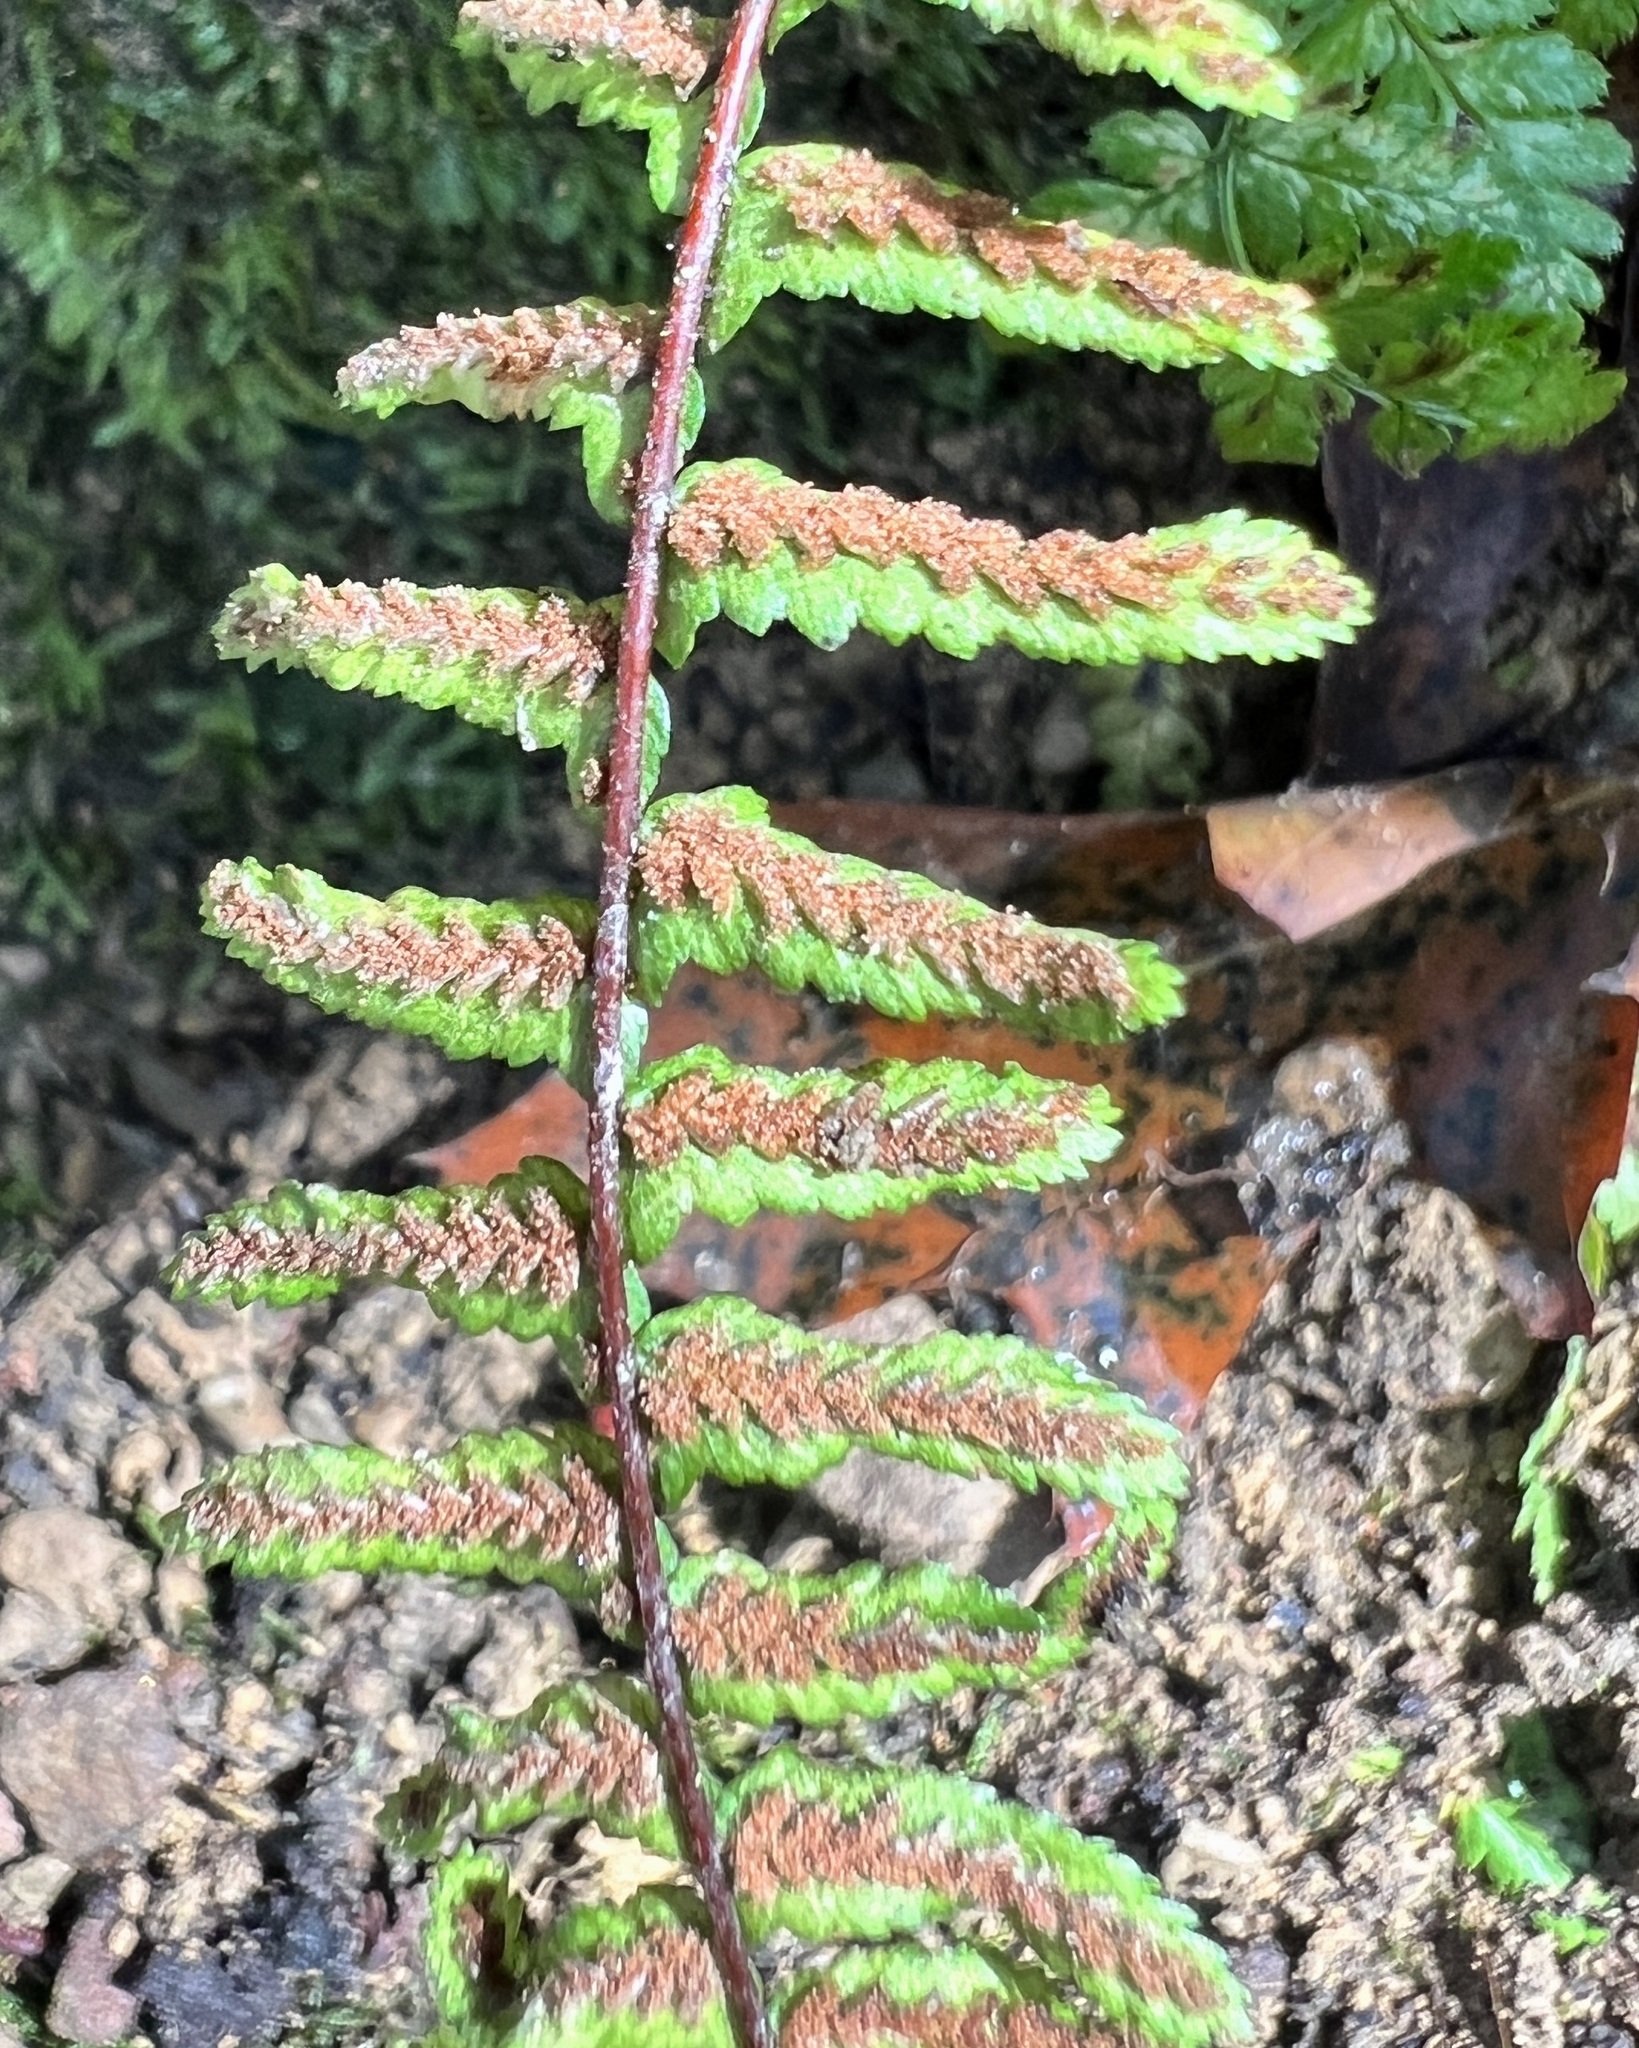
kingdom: Plantae
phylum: Tracheophyta
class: Polypodiopsida
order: Polypodiales
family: Aspleniaceae
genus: Asplenium
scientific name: Asplenium platyneuron
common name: Ebony spleenwort
